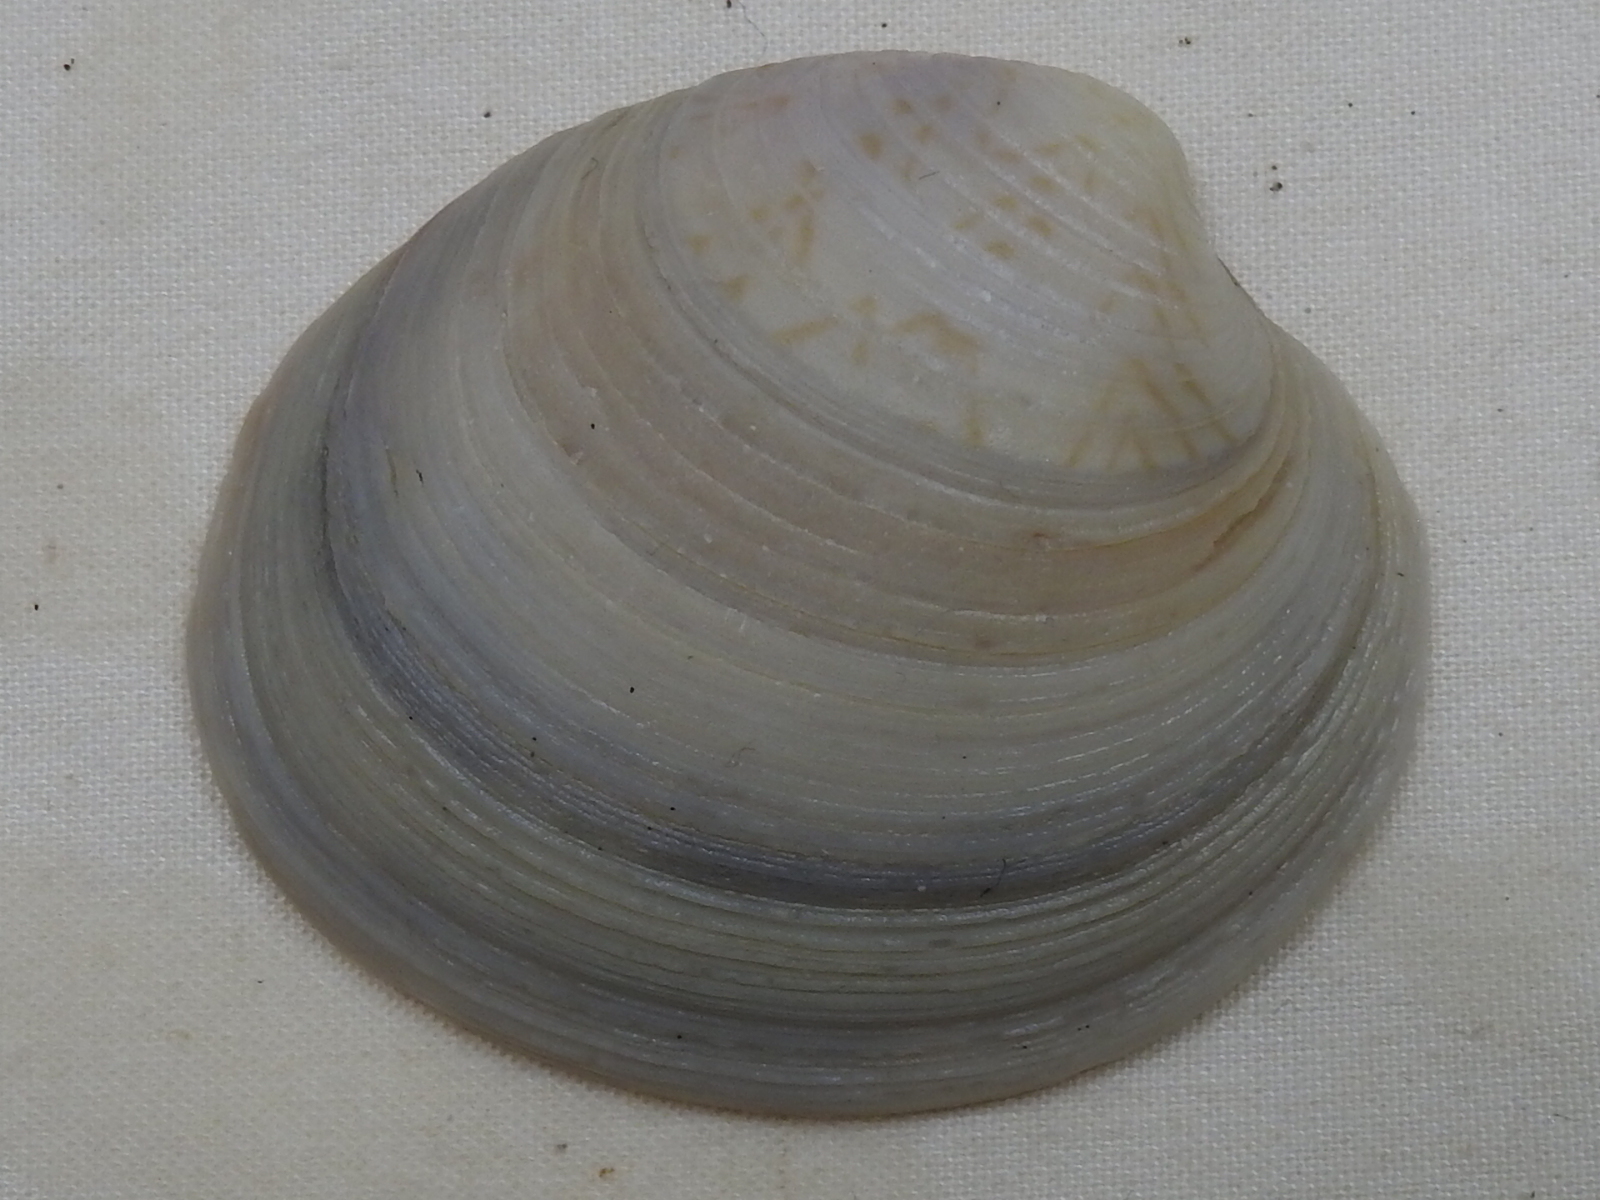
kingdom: Animalia
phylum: Mollusca
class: Bivalvia
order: Venerida
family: Veneridae
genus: Mercenaria
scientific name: Mercenaria campechiensis
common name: Südliche quahog-muschel
